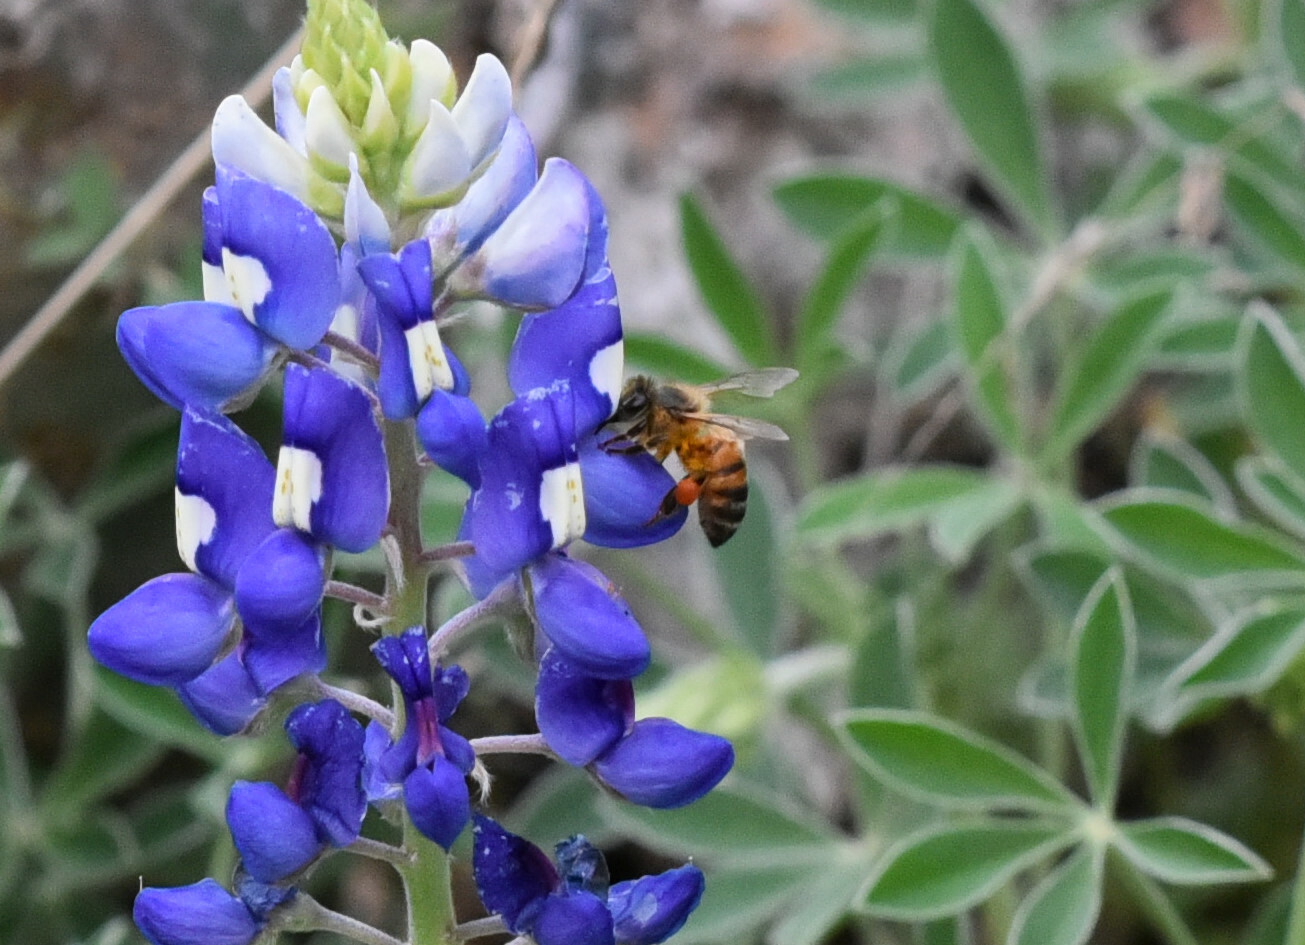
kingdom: Animalia
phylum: Arthropoda
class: Insecta
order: Hymenoptera
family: Apidae
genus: Apis
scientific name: Apis mellifera
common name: Honey bee
